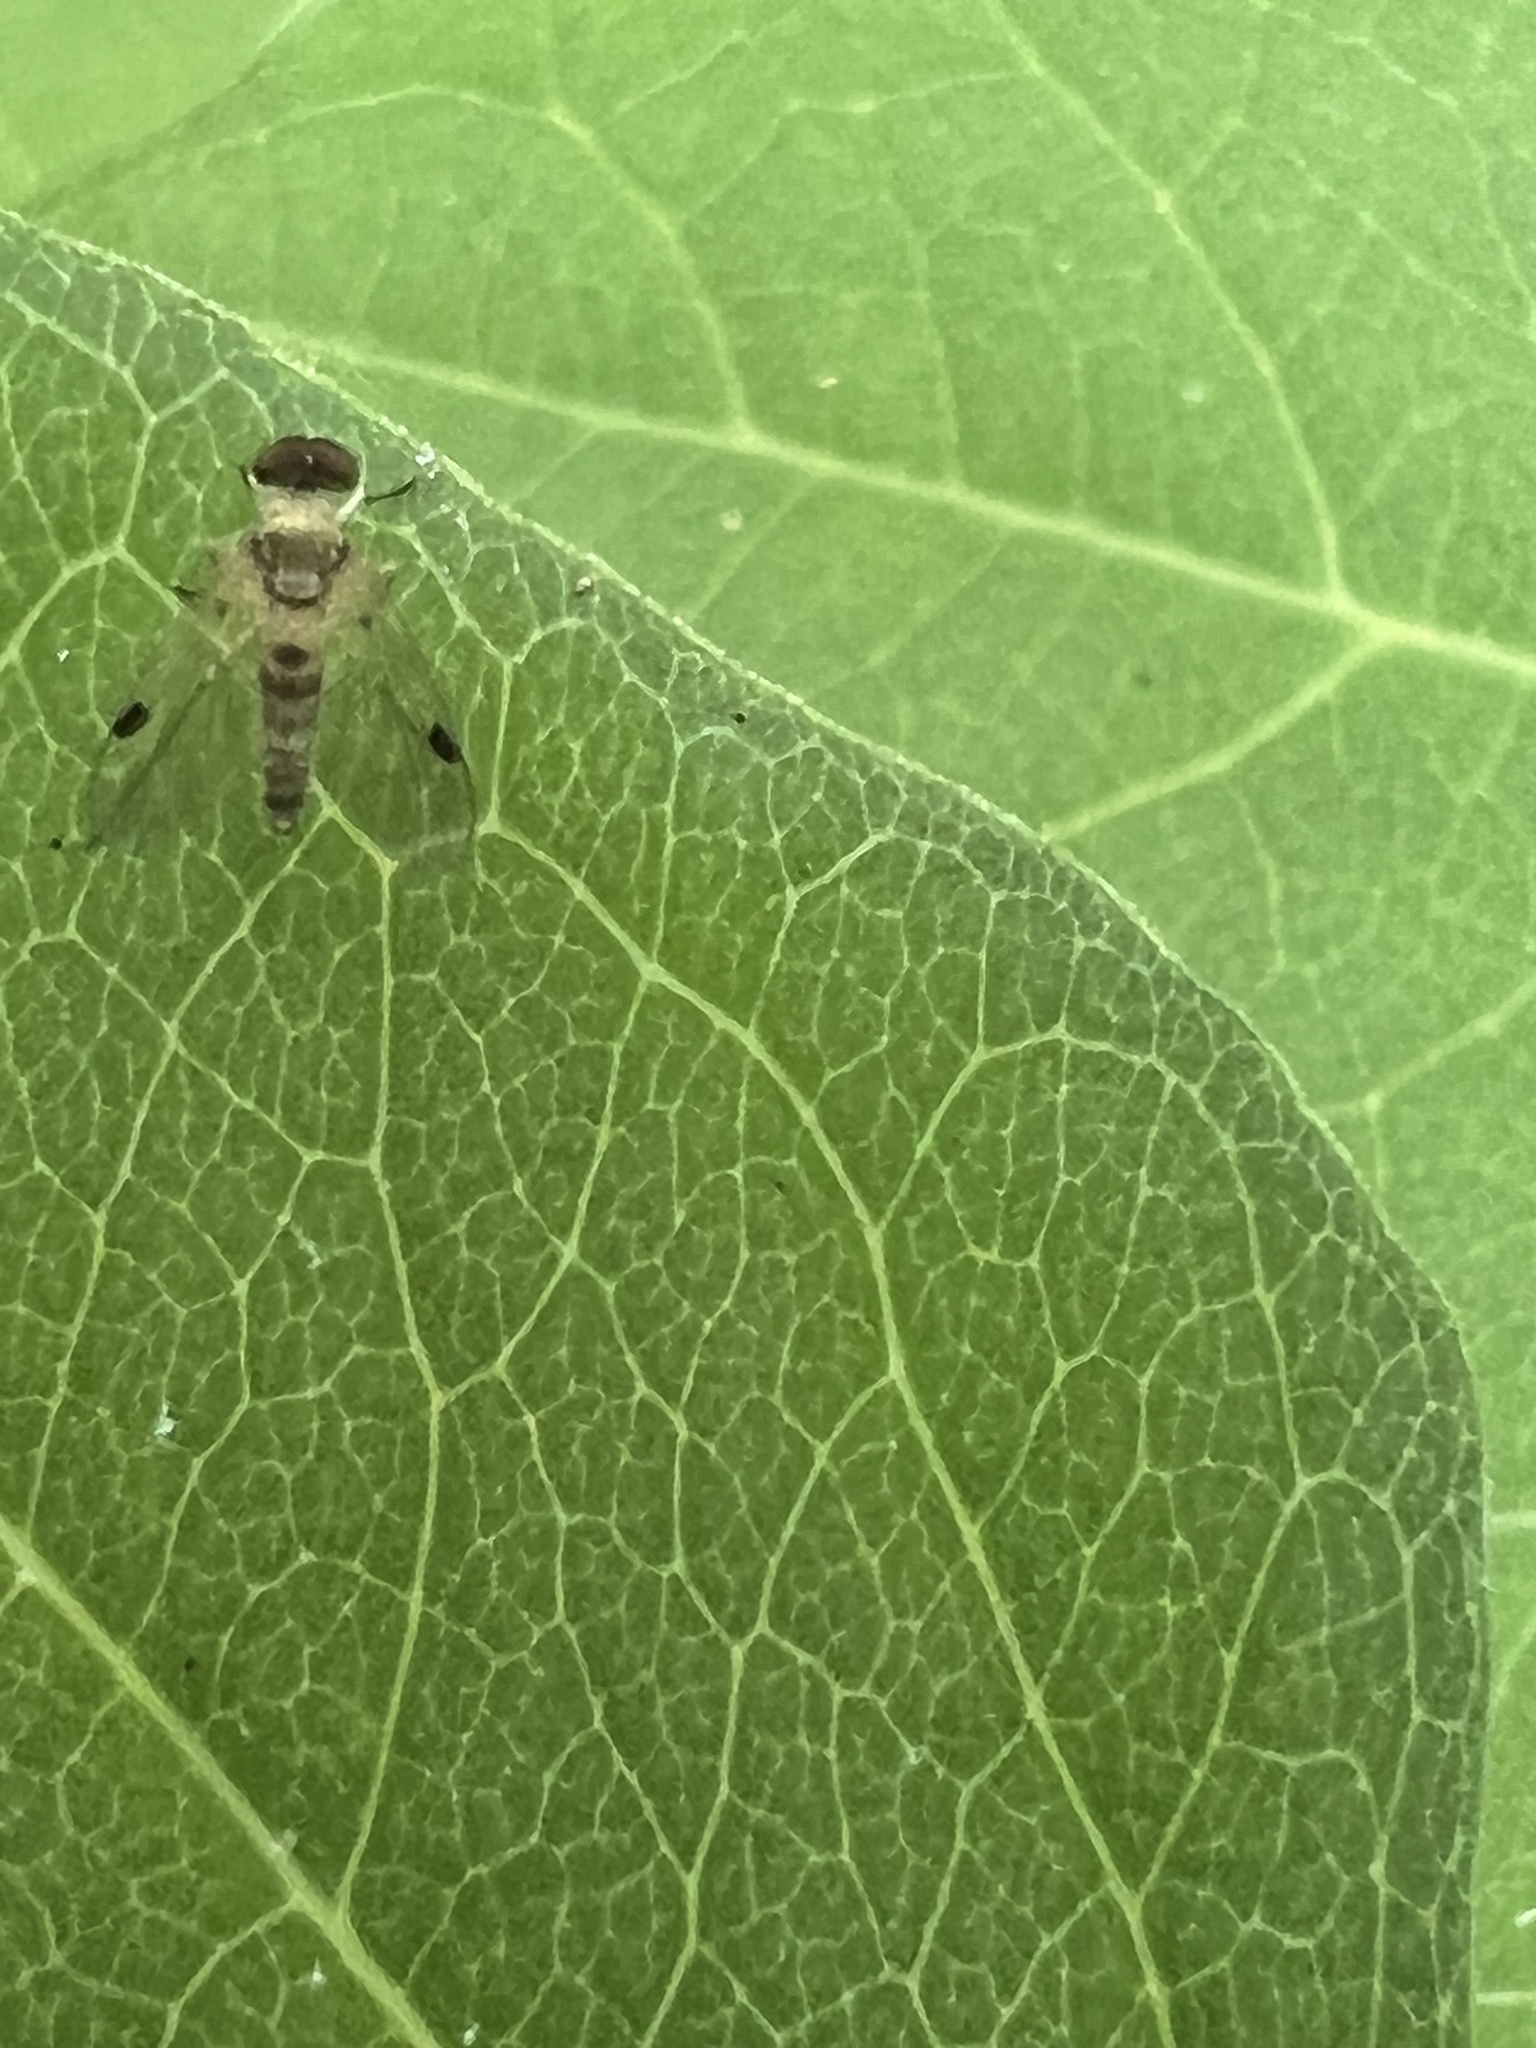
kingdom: Animalia
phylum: Arthropoda
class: Insecta
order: Diptera
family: Rhagionidae
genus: Chrysopilus
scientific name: Chrysopilus modestus
